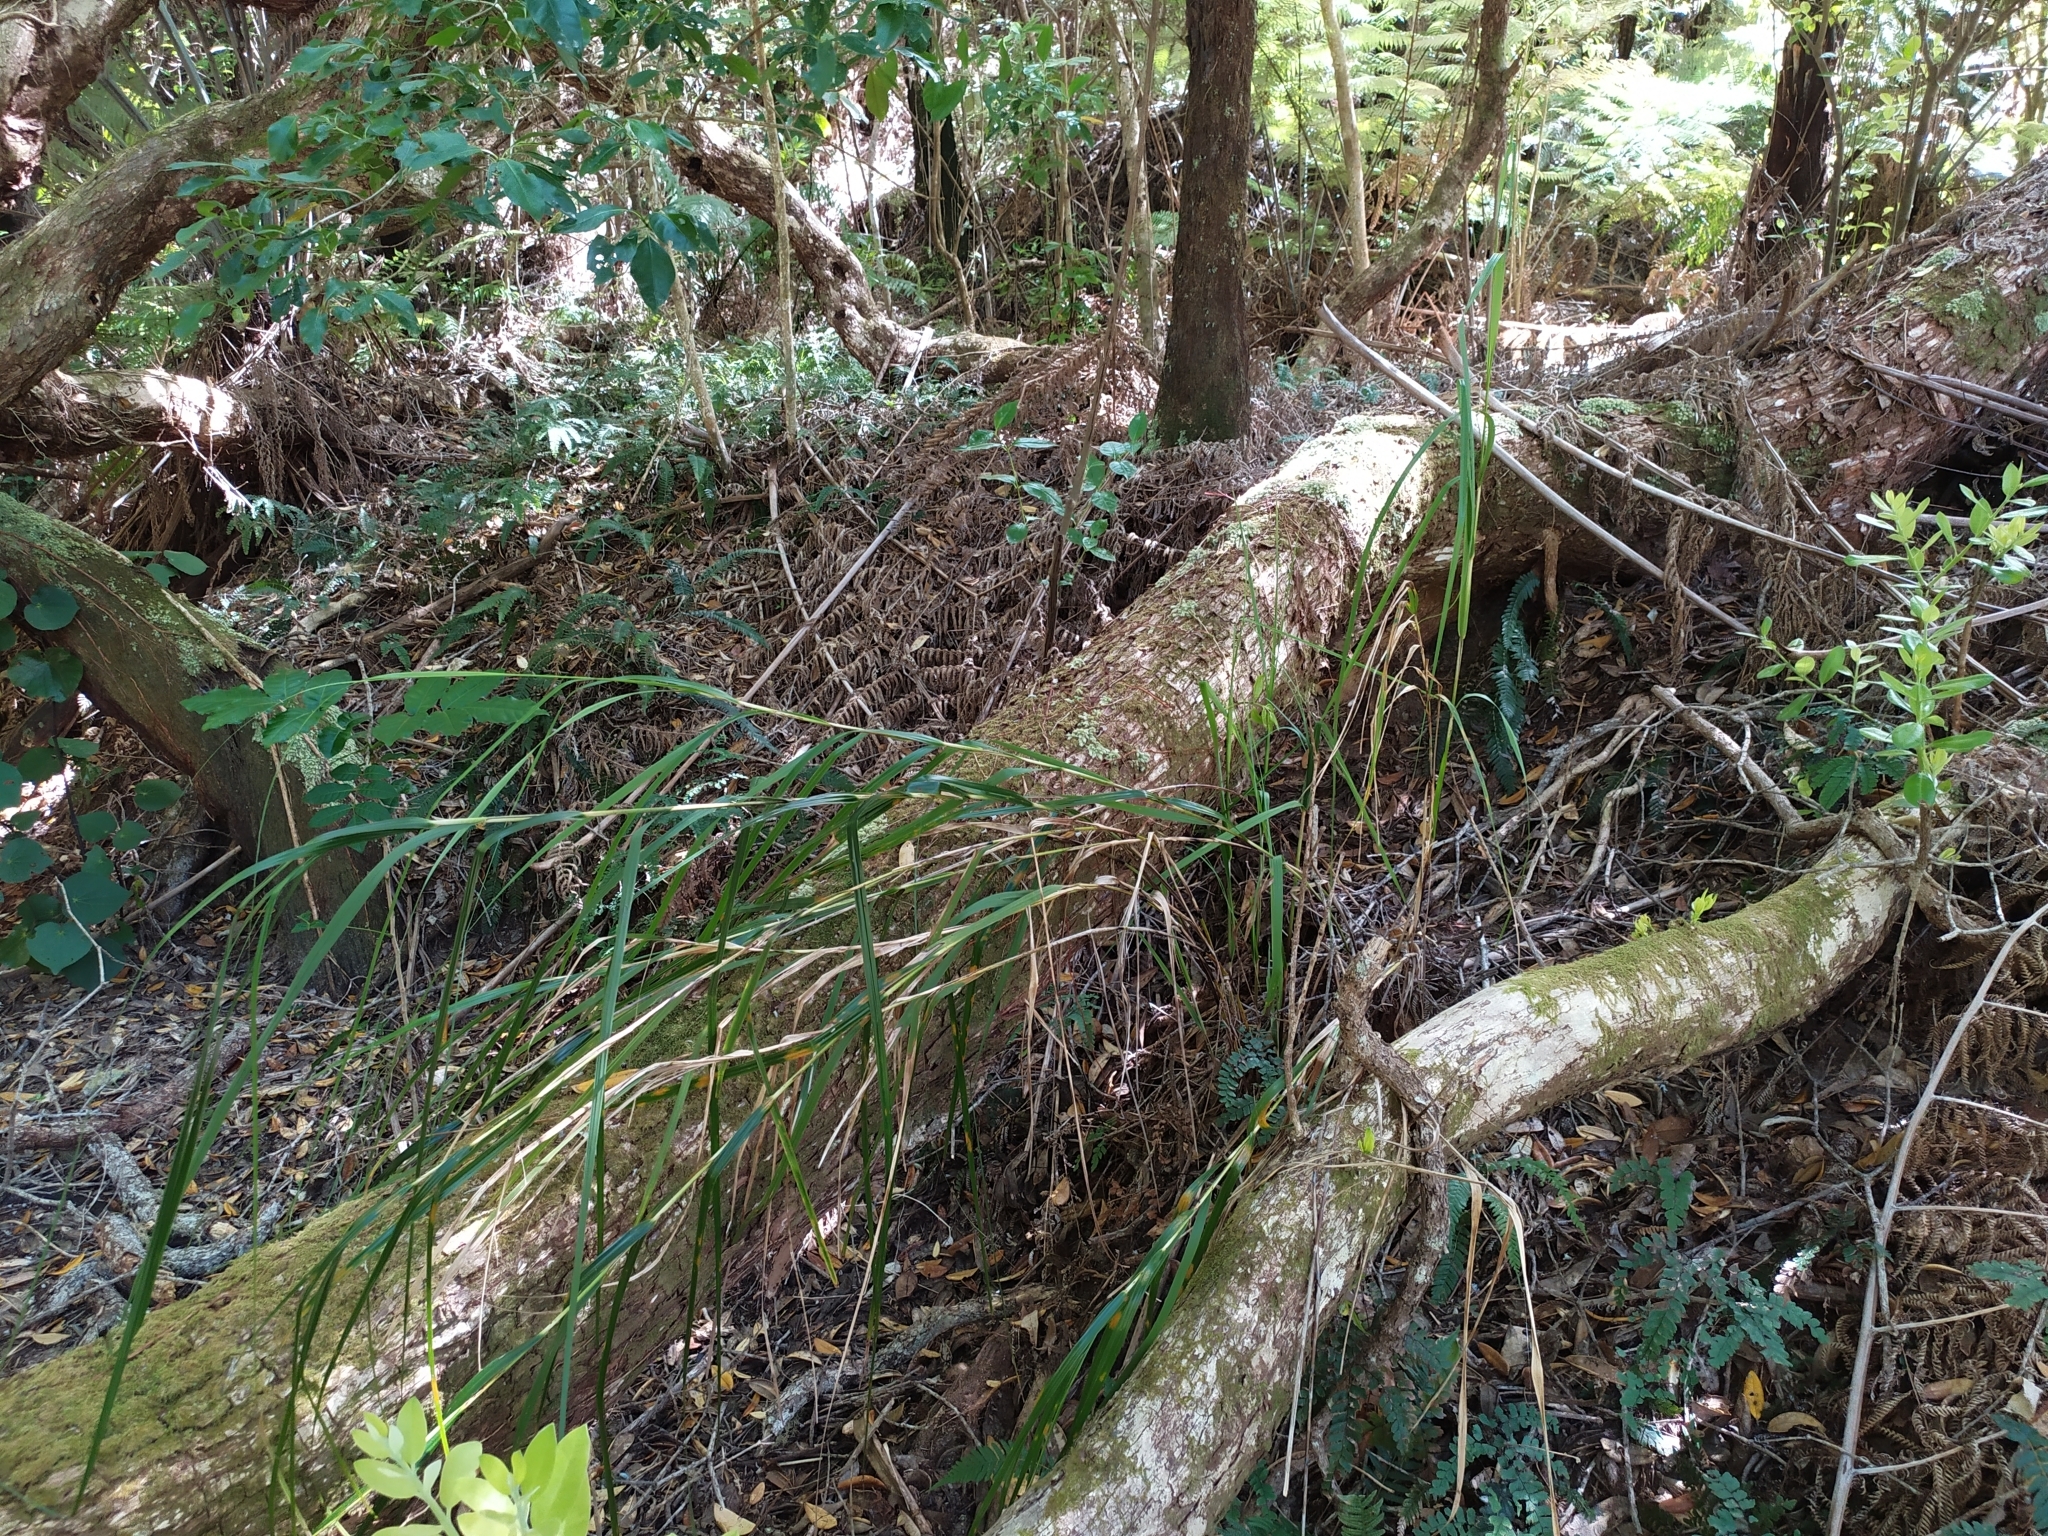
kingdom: Plantae
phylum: Tracheophyta
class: Liliopsida
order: Poales
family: Cyperaceae
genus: Gahnia
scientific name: Gahnia lacera
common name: Sawsedge
